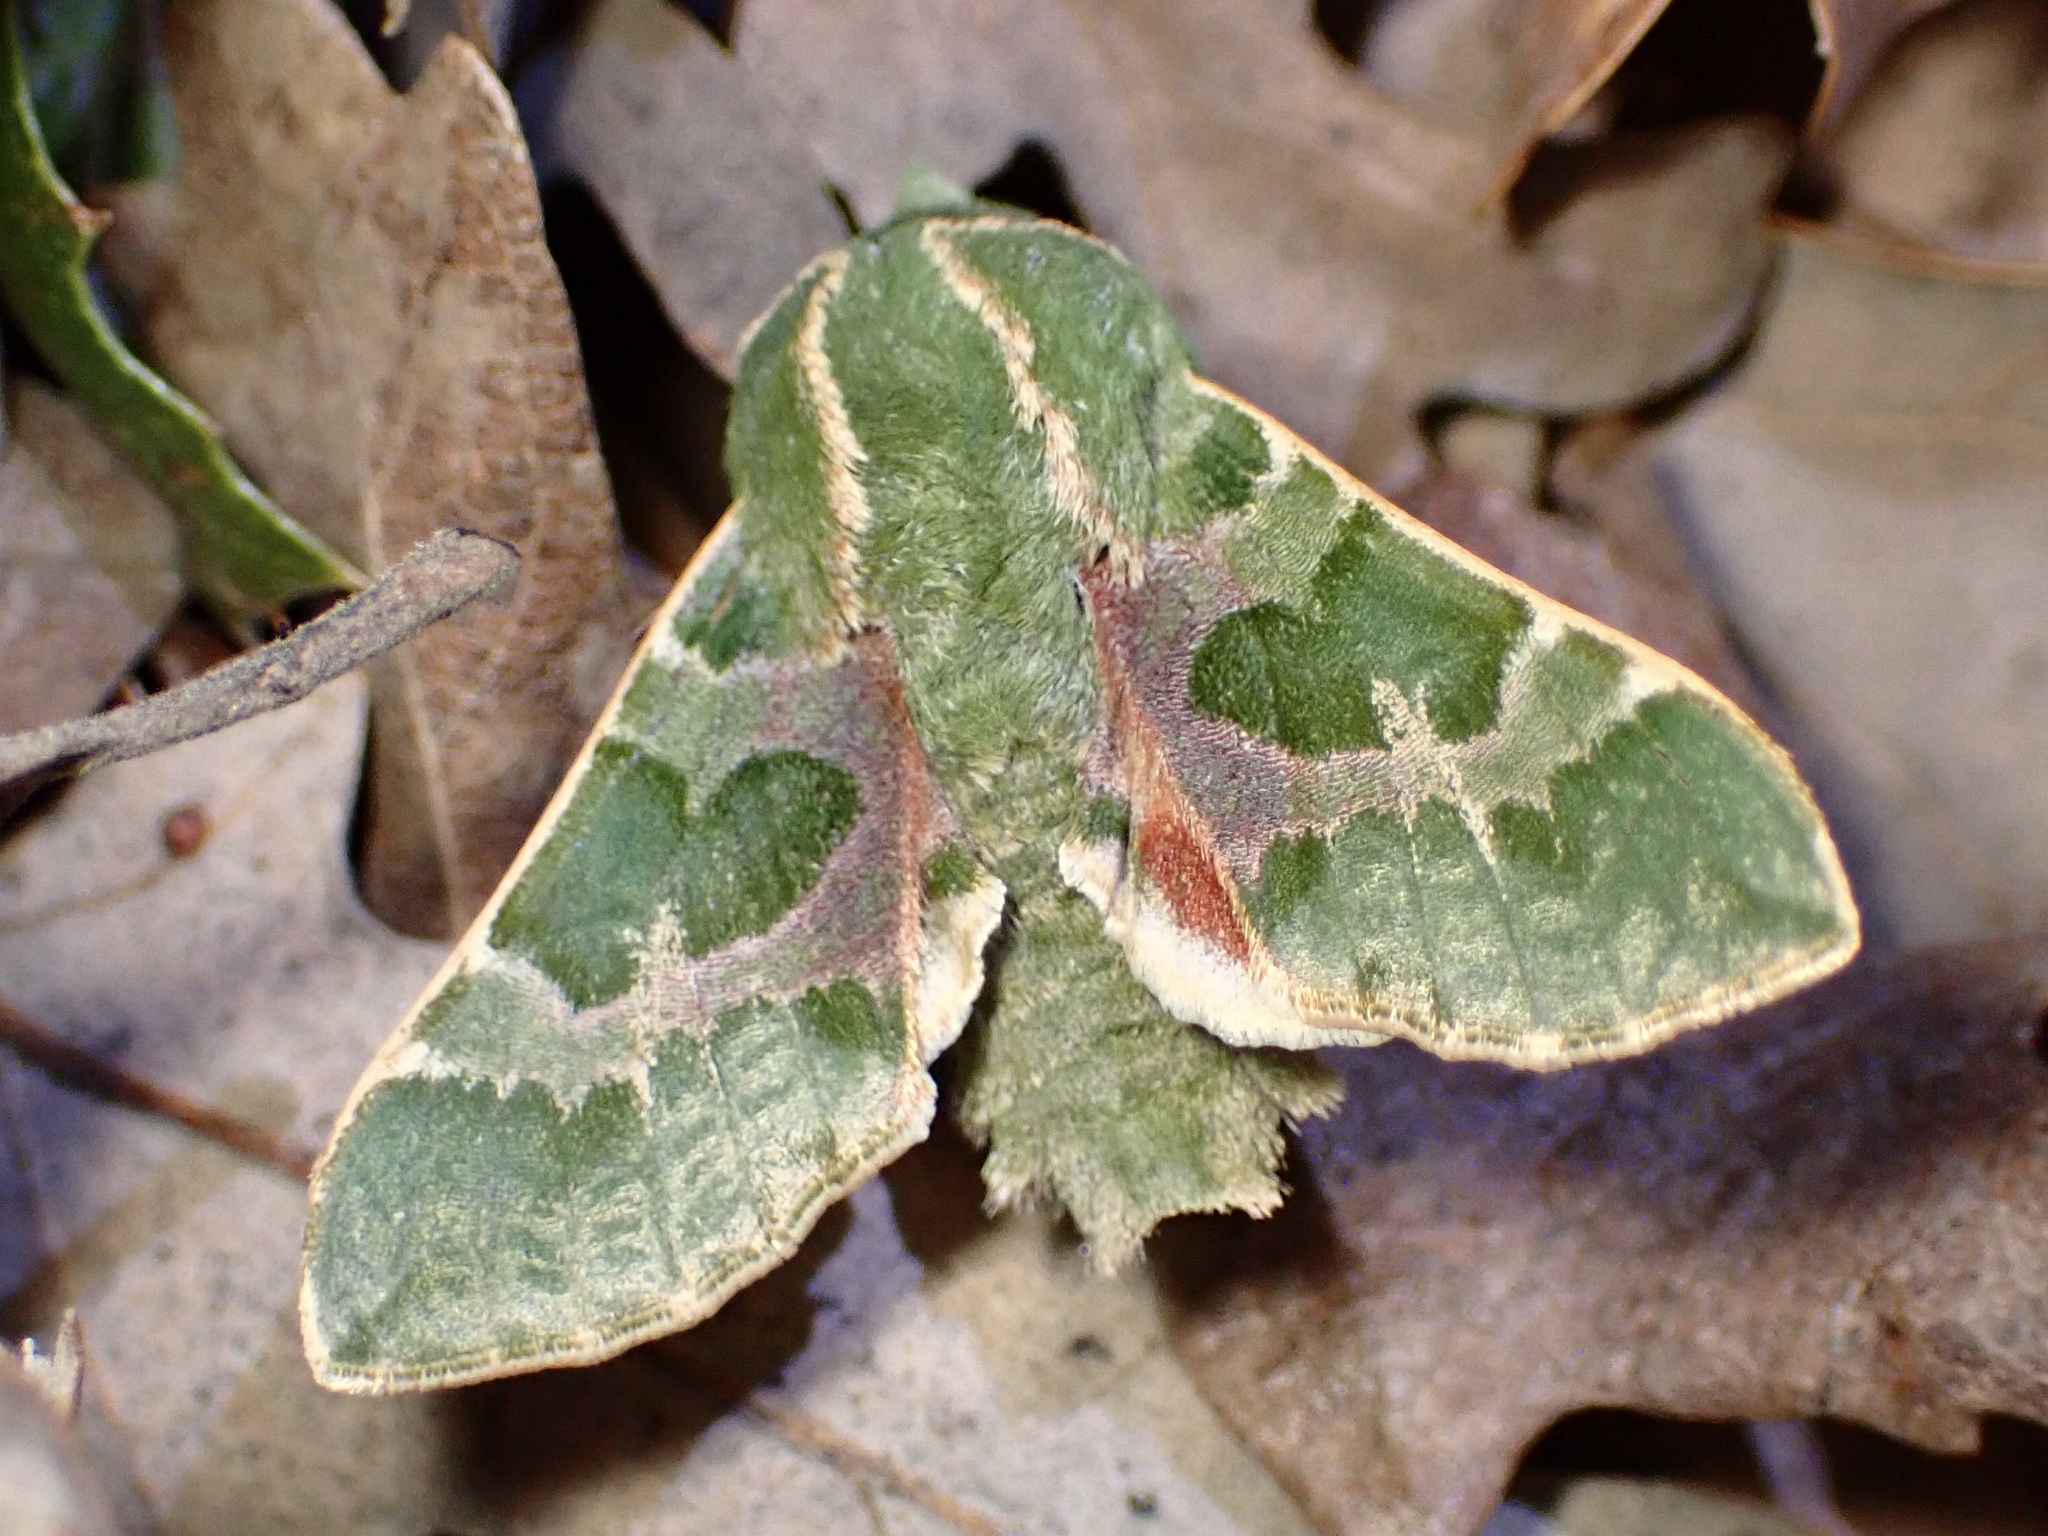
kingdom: Animalia
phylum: Arthropoda
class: Insecta
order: Lepidoptera
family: Sphingidae
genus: Proserpinus
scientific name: Proserpinus lucidus
